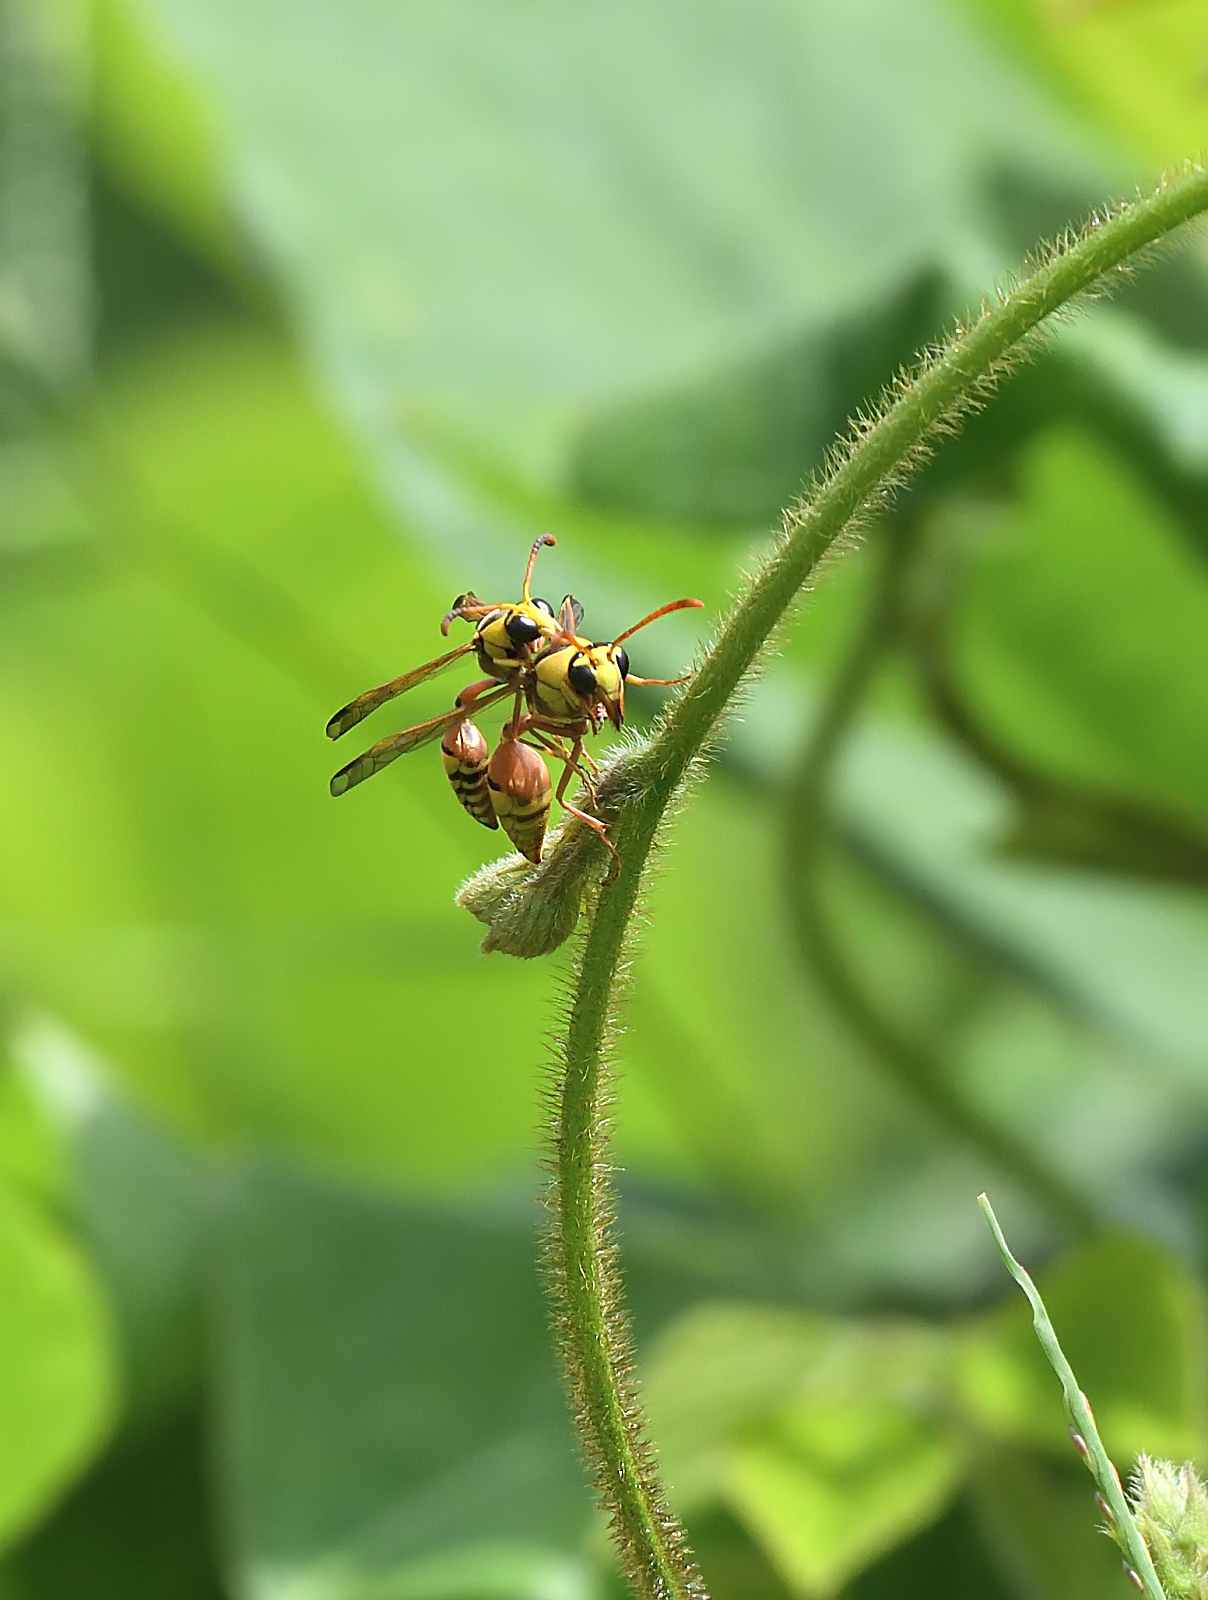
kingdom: Animalia
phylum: Arthropoda
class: Insecta
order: Hymenoptera
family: Eumenidae
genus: Delta
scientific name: Delta esuriens
